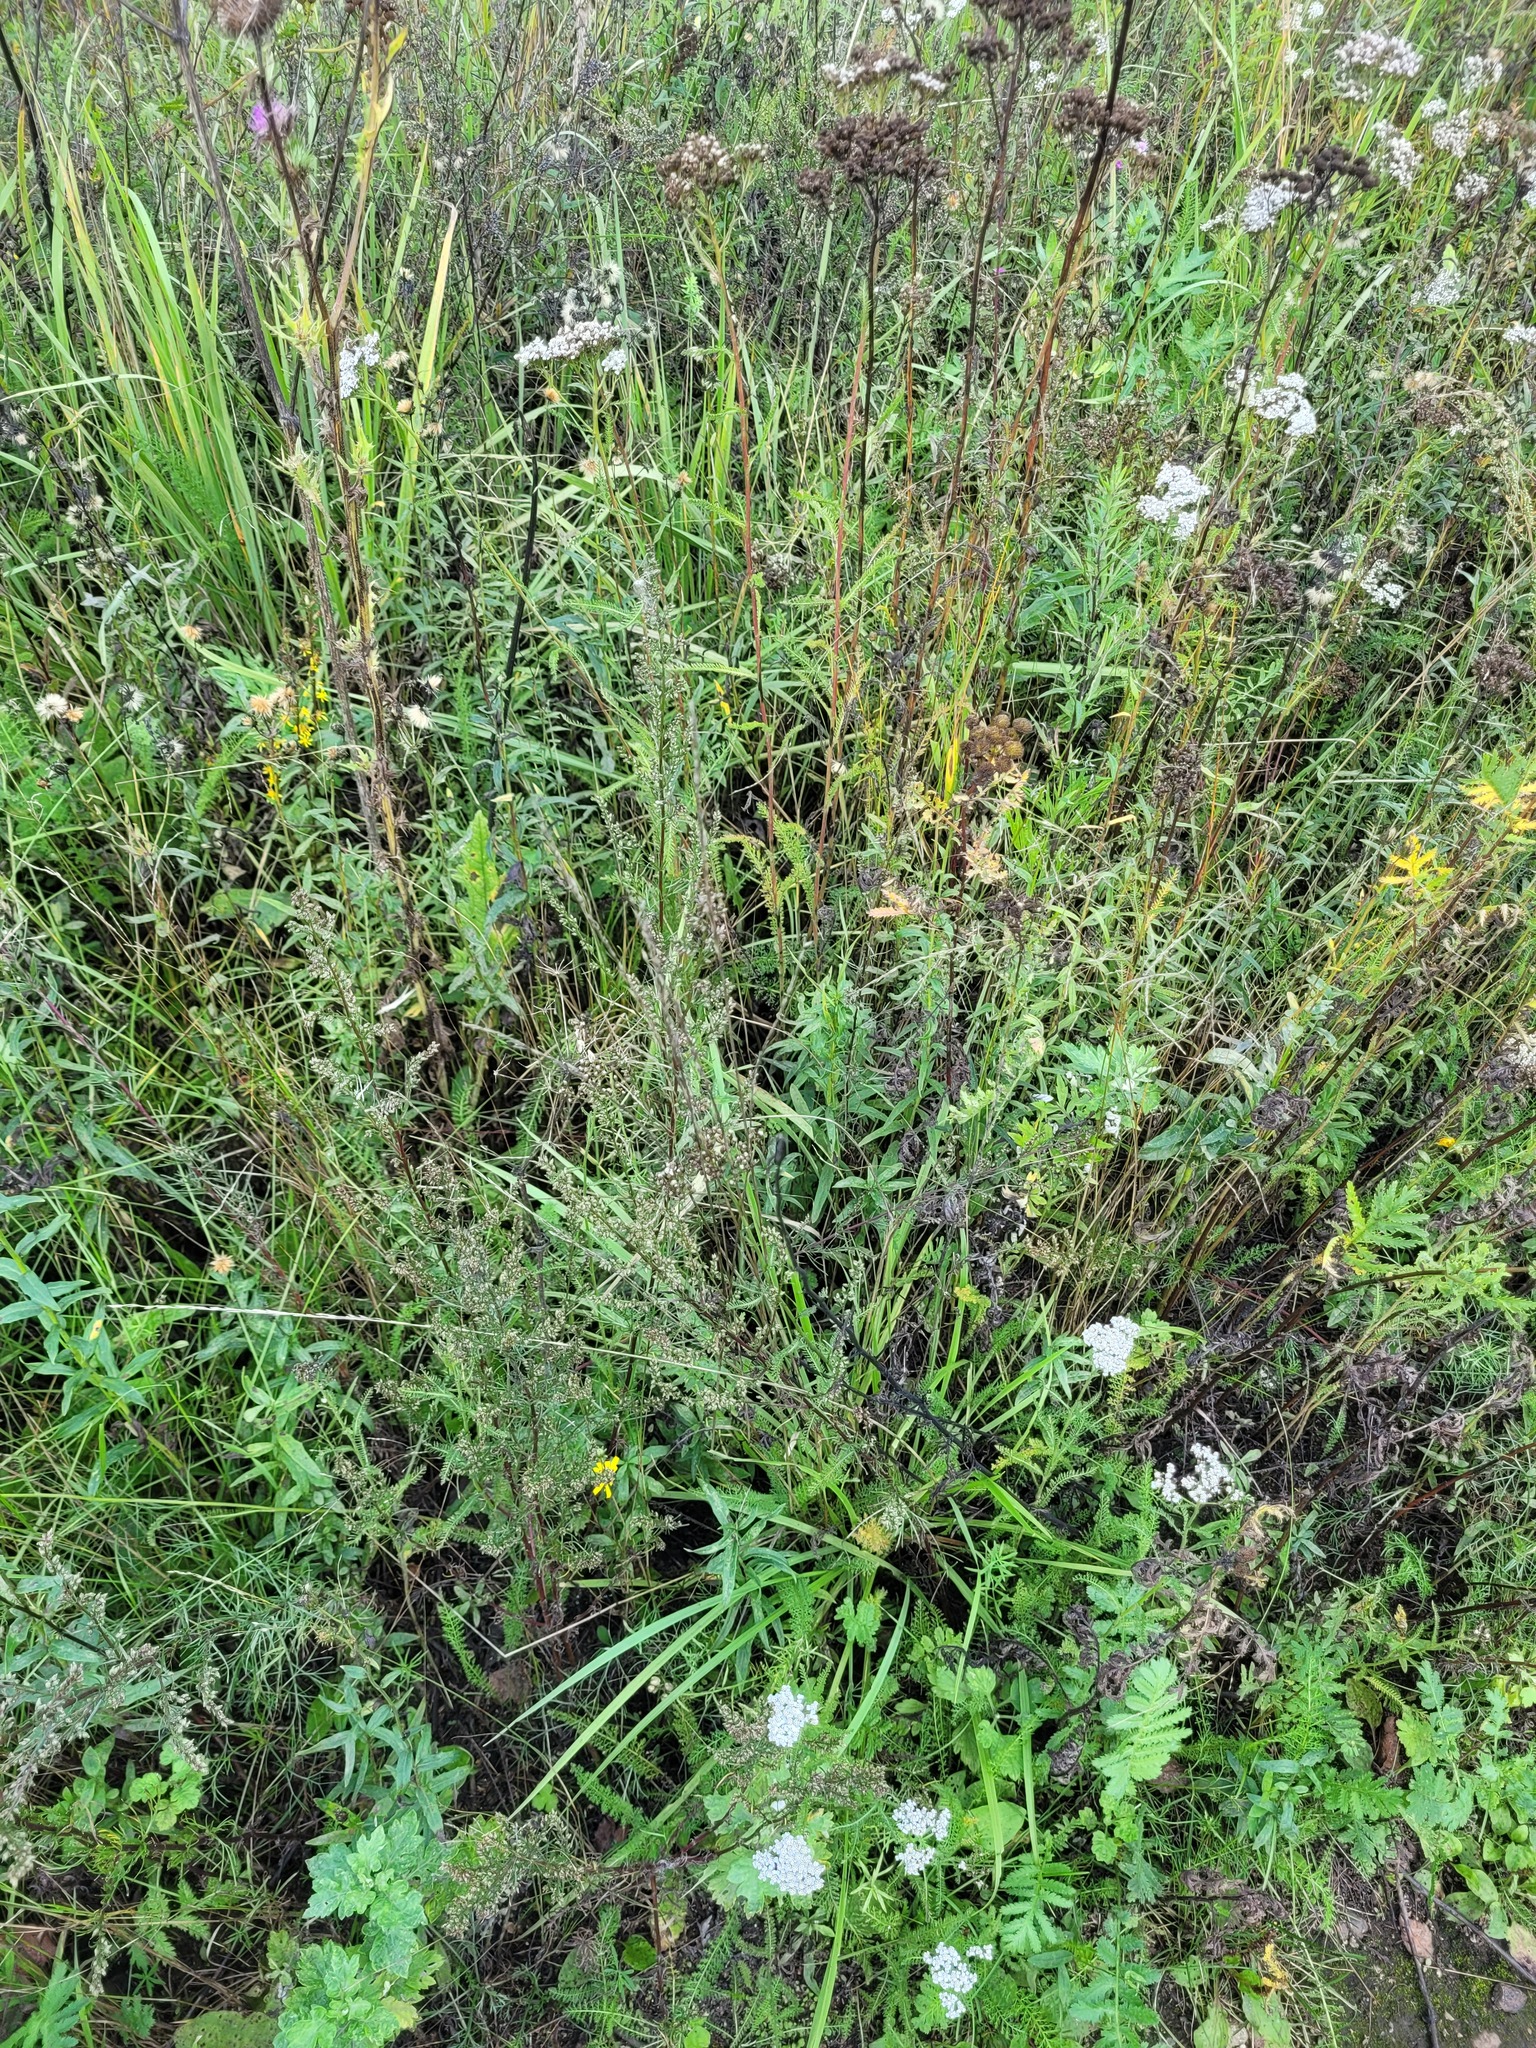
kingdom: Plantae
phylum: Tracheophyta
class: Magnoliopsida
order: Asterales
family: Asteraceae
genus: Artemisia
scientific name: Artemisia campestris
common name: Field wormwood
